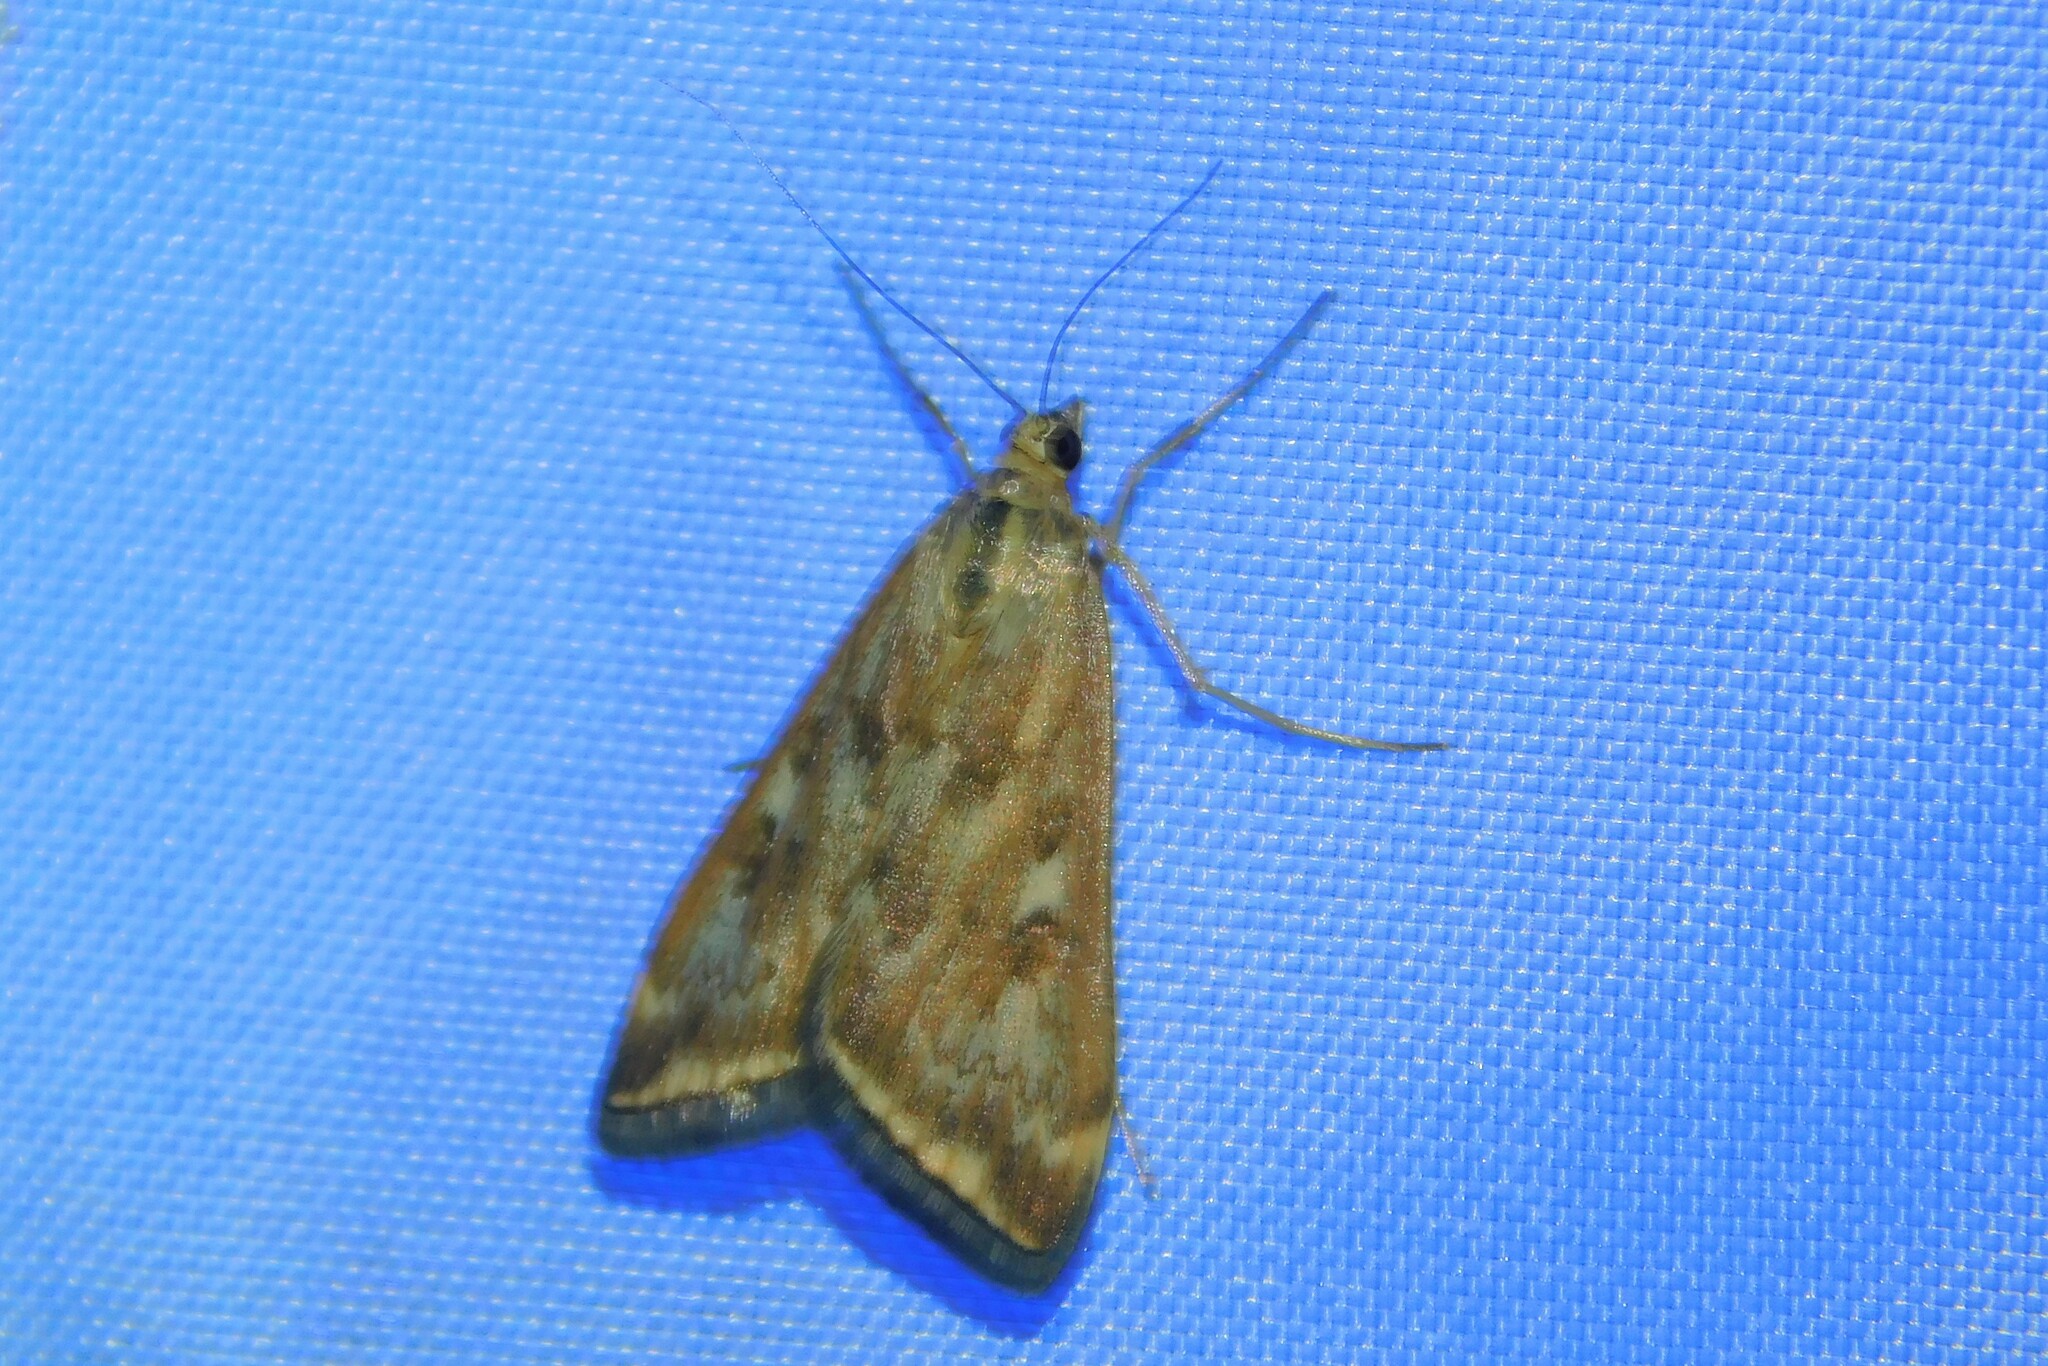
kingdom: Animalia
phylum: Arthropoda
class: Insecta
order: Lepidoptera
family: Crambidae
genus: Loxostege
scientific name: Loxostege sticticalis
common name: Crambid moth
